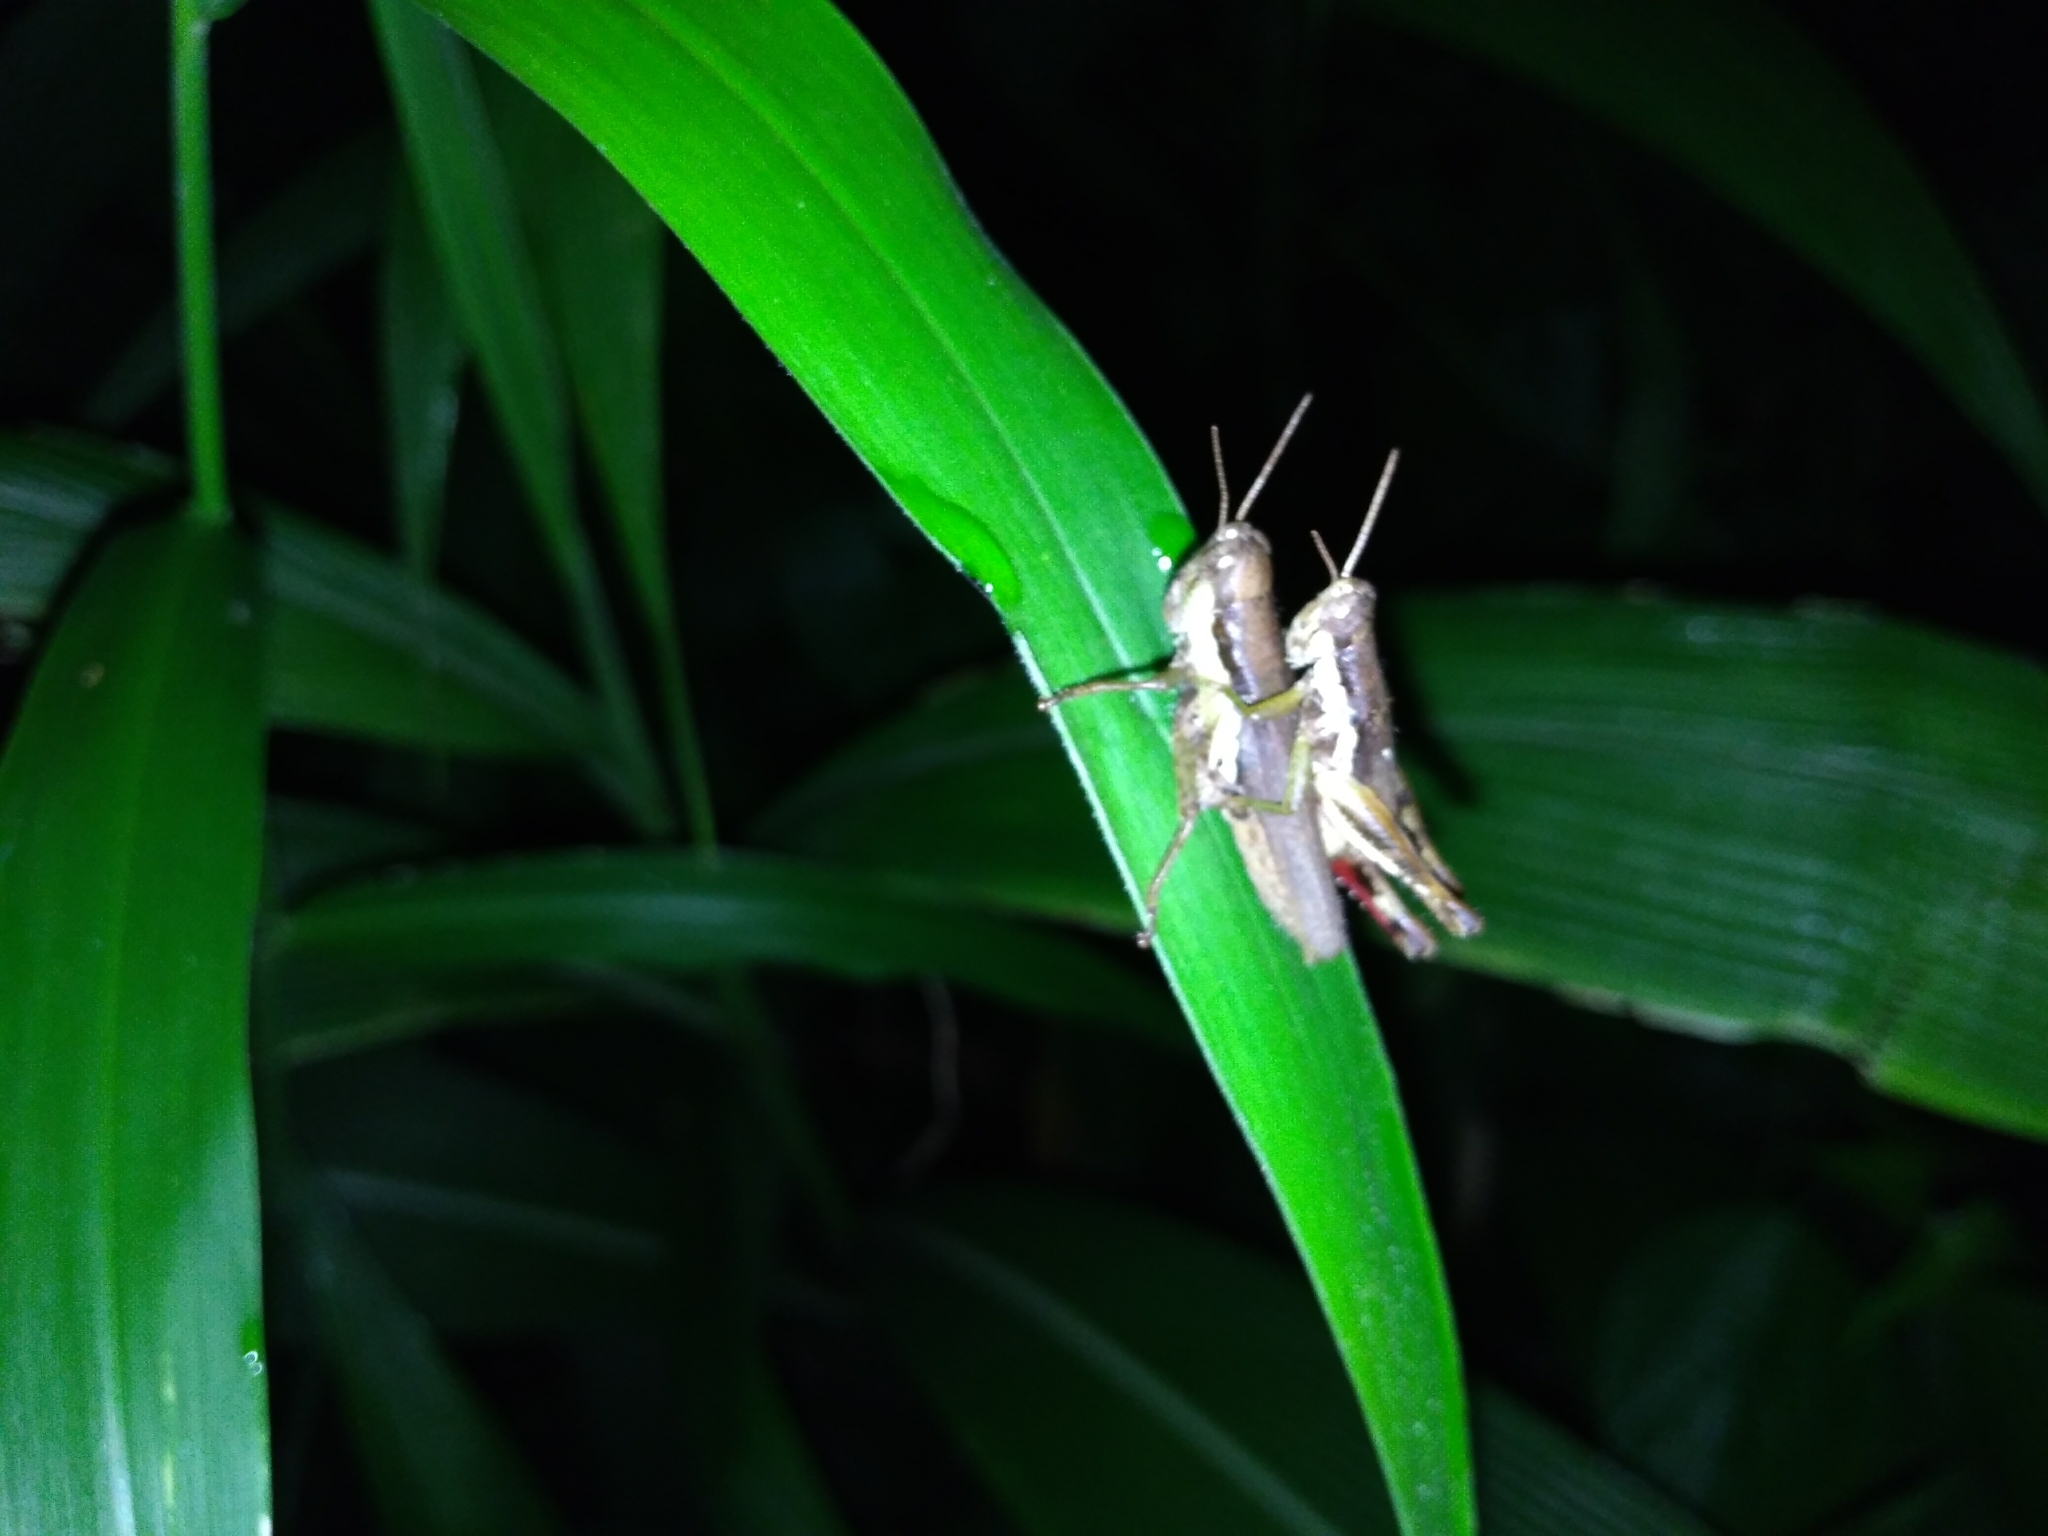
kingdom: Animalia
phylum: Arthropoda
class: Insecta
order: Orthoptera
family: Acrididae
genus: Pseudoxya
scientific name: Pseudoxya diminuta
